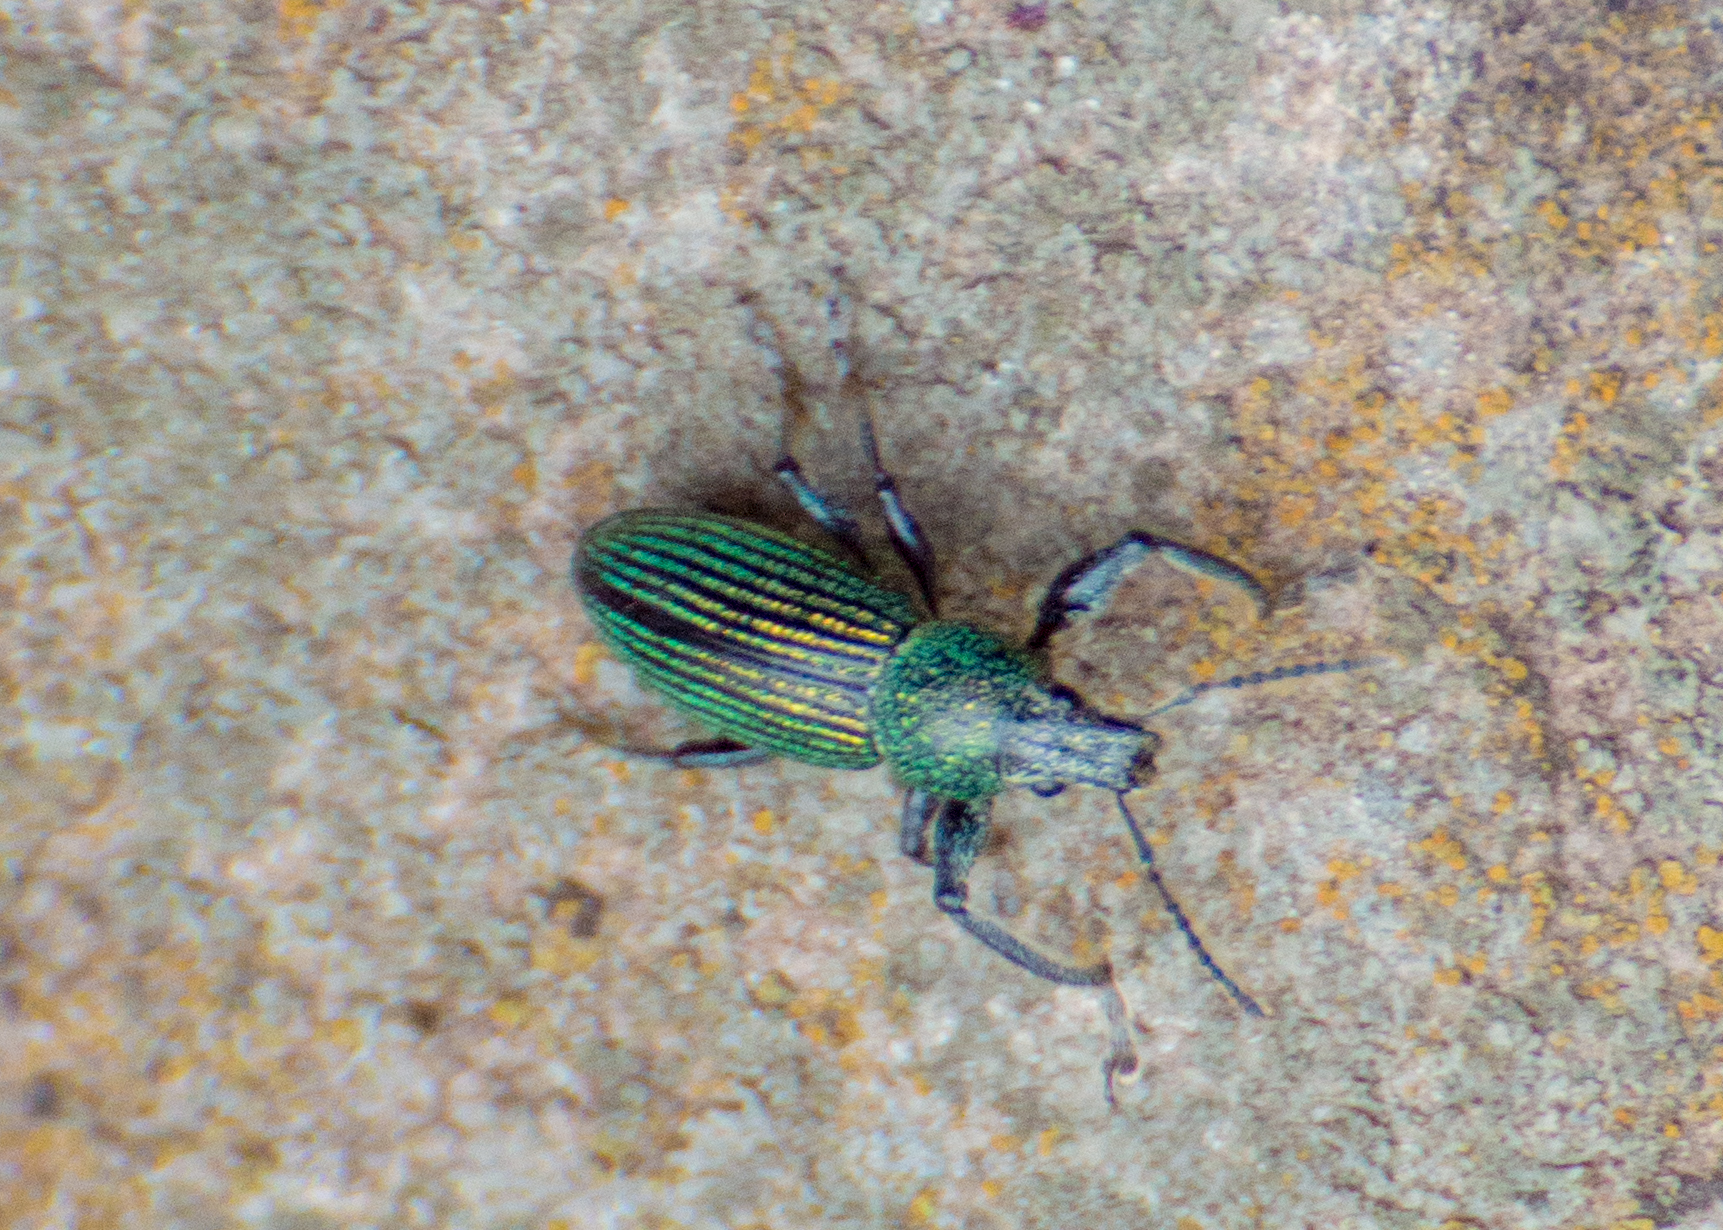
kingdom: Animalia
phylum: Arthropoda
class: Insecta
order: Coleoptera
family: Curculionidae
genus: Naupactus
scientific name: Naupactus dives
